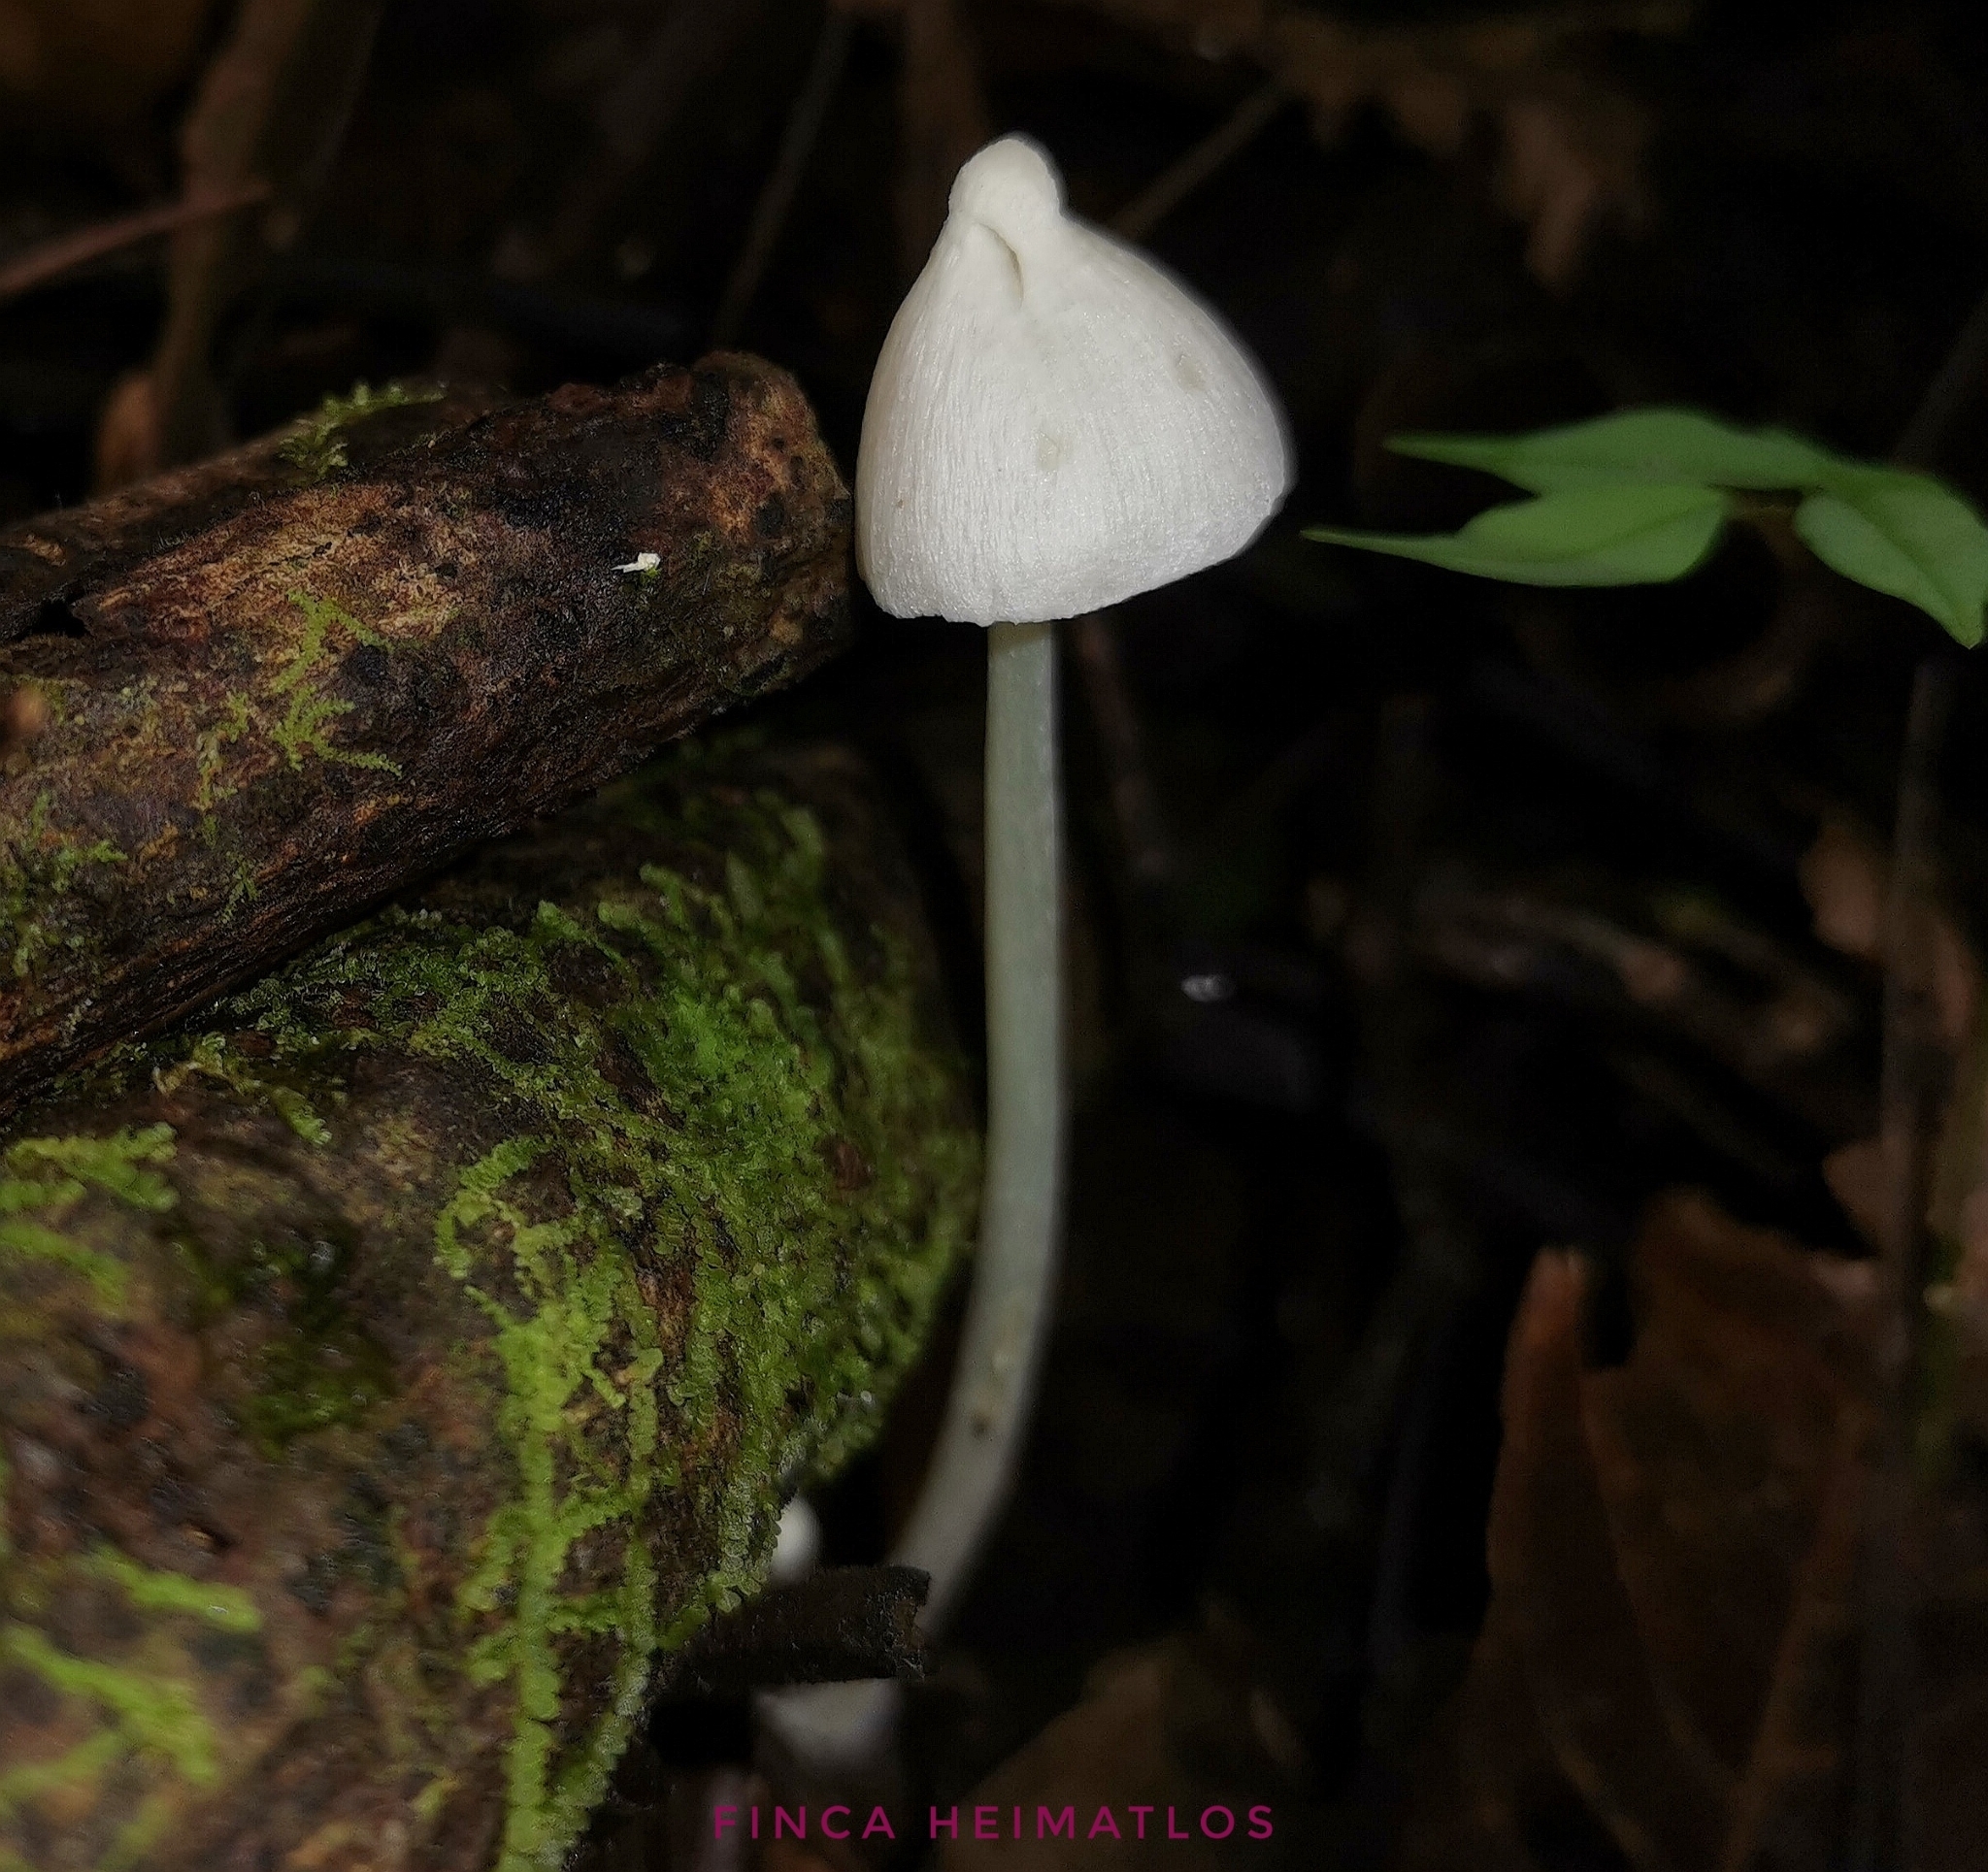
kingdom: Fungi
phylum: Basidiomycota
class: Agaricomycetes
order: Agaricales
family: Entolomataceae
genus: Entoloma
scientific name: Entoloma stylophorum
